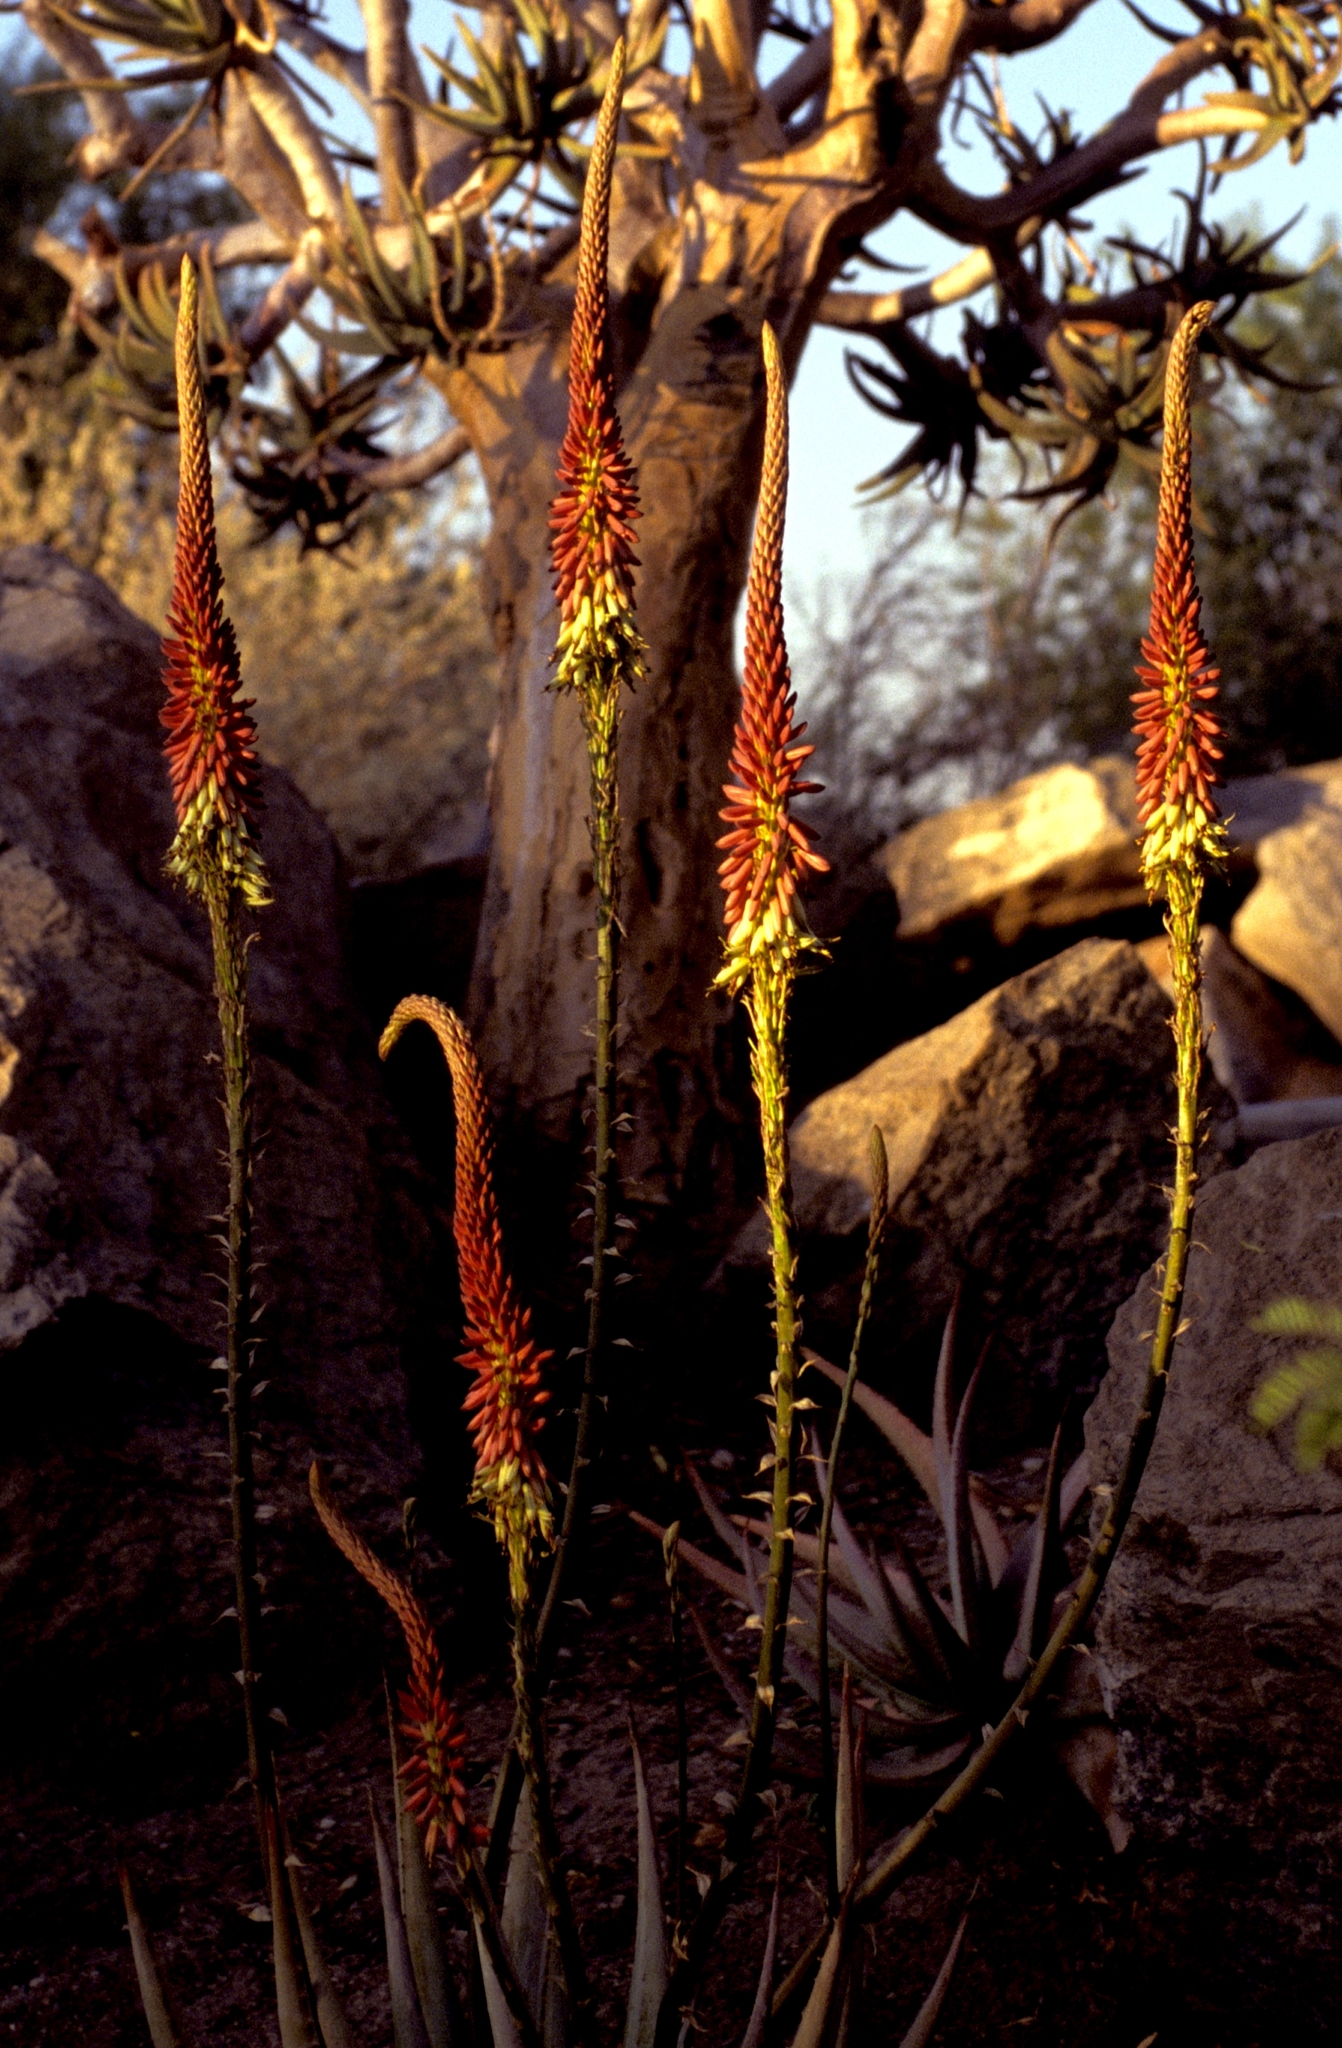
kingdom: Plantae
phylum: Tracheophyta
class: Liliopsida
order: Asparagales
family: Asphodelaceae
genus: Aloe
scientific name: Aloe gariepensis
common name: Orange river aloe
